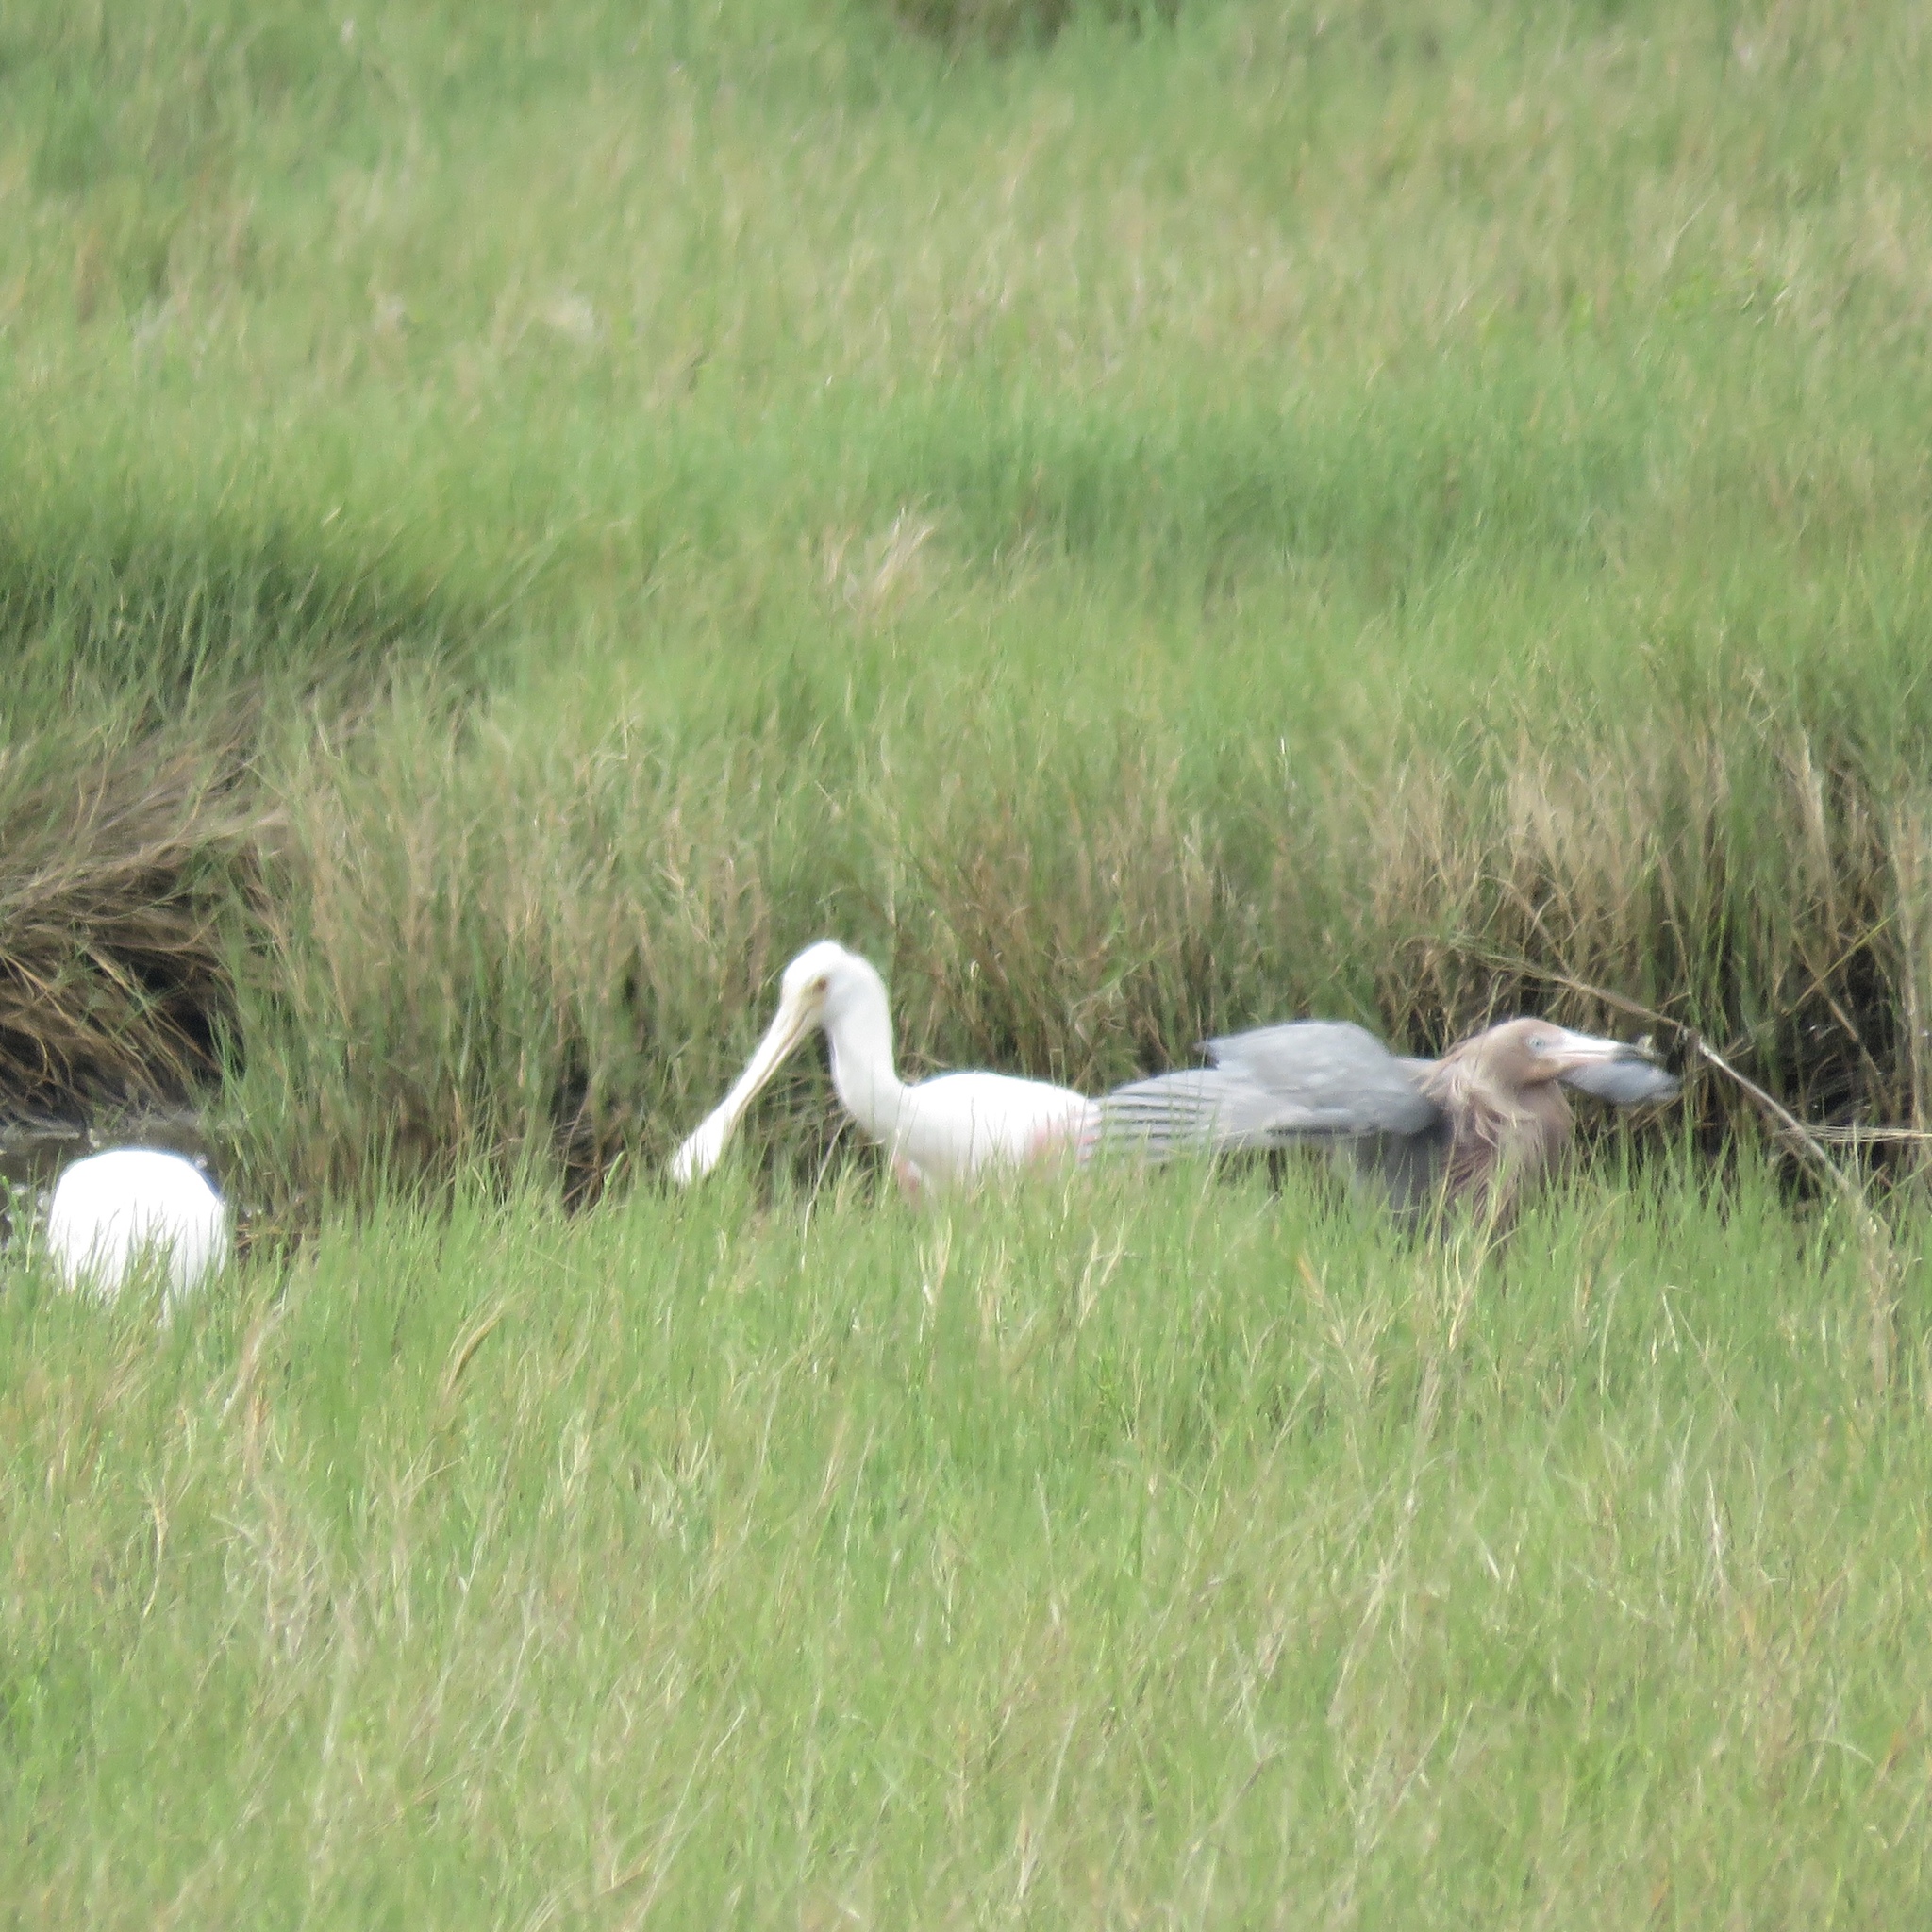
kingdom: Animalia
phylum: Chordata
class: Aves
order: Pelecaniformes
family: Threskiornithidae
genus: Platalea
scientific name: Platalea ajaja
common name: Roseate spoonbill
